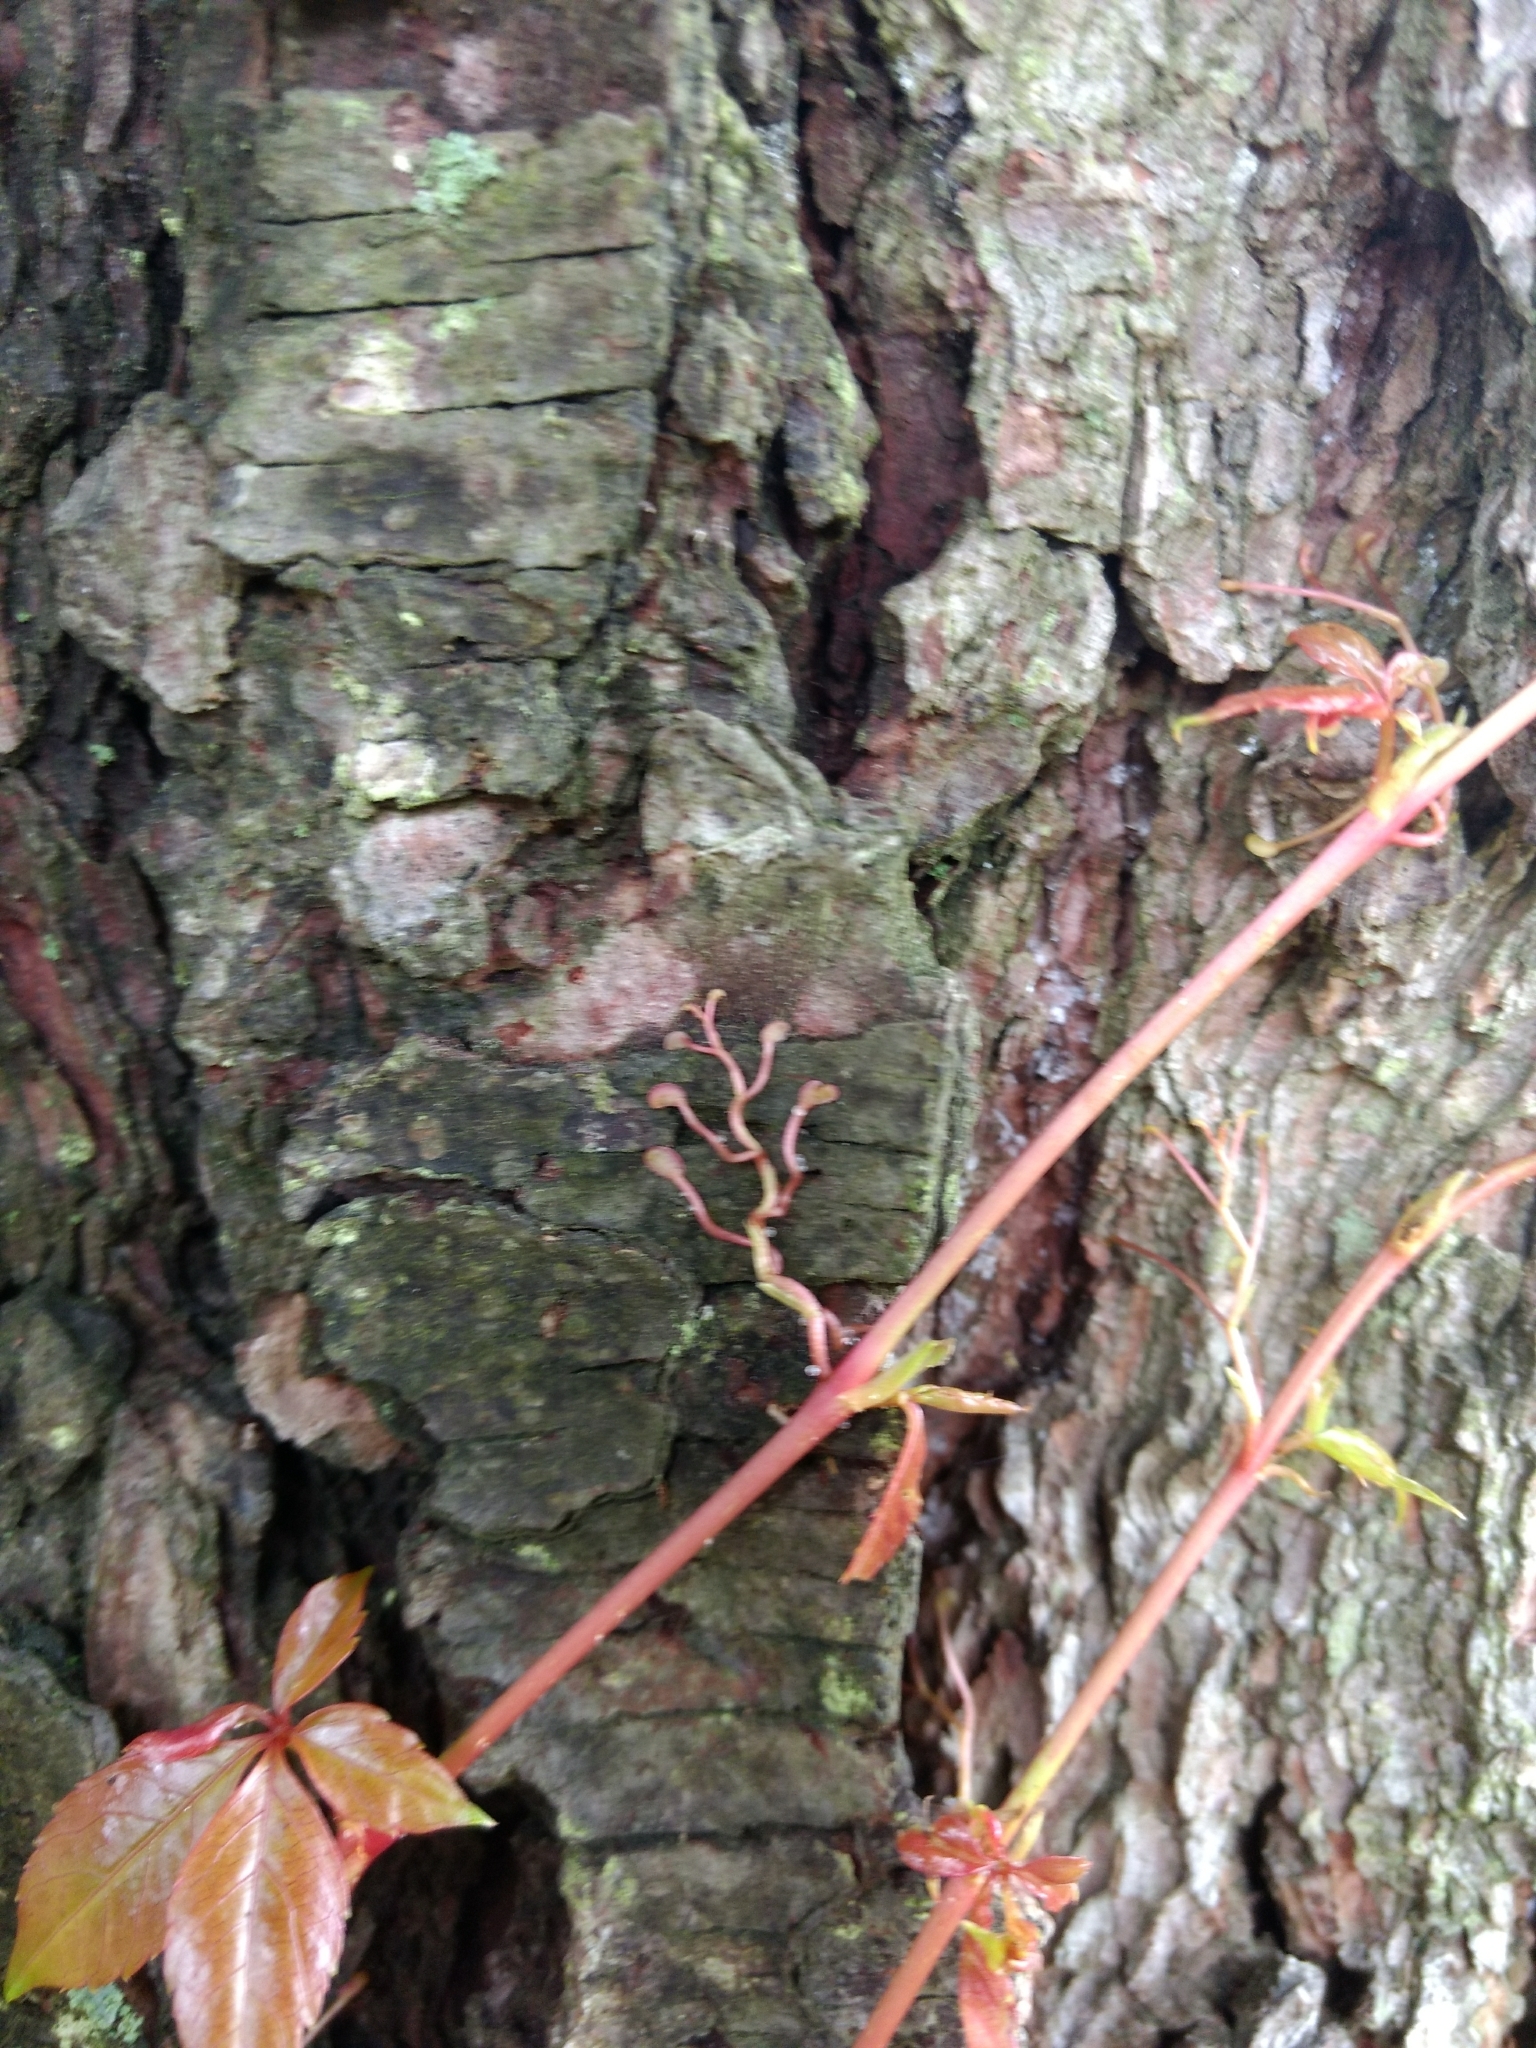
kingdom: Plantae
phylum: Tracheophyta
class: Magnoliopsida
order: Vitales
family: Vitaceae
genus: Parthenocissus
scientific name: Parthenocissus quinquefolia
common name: Virginia-creeper
